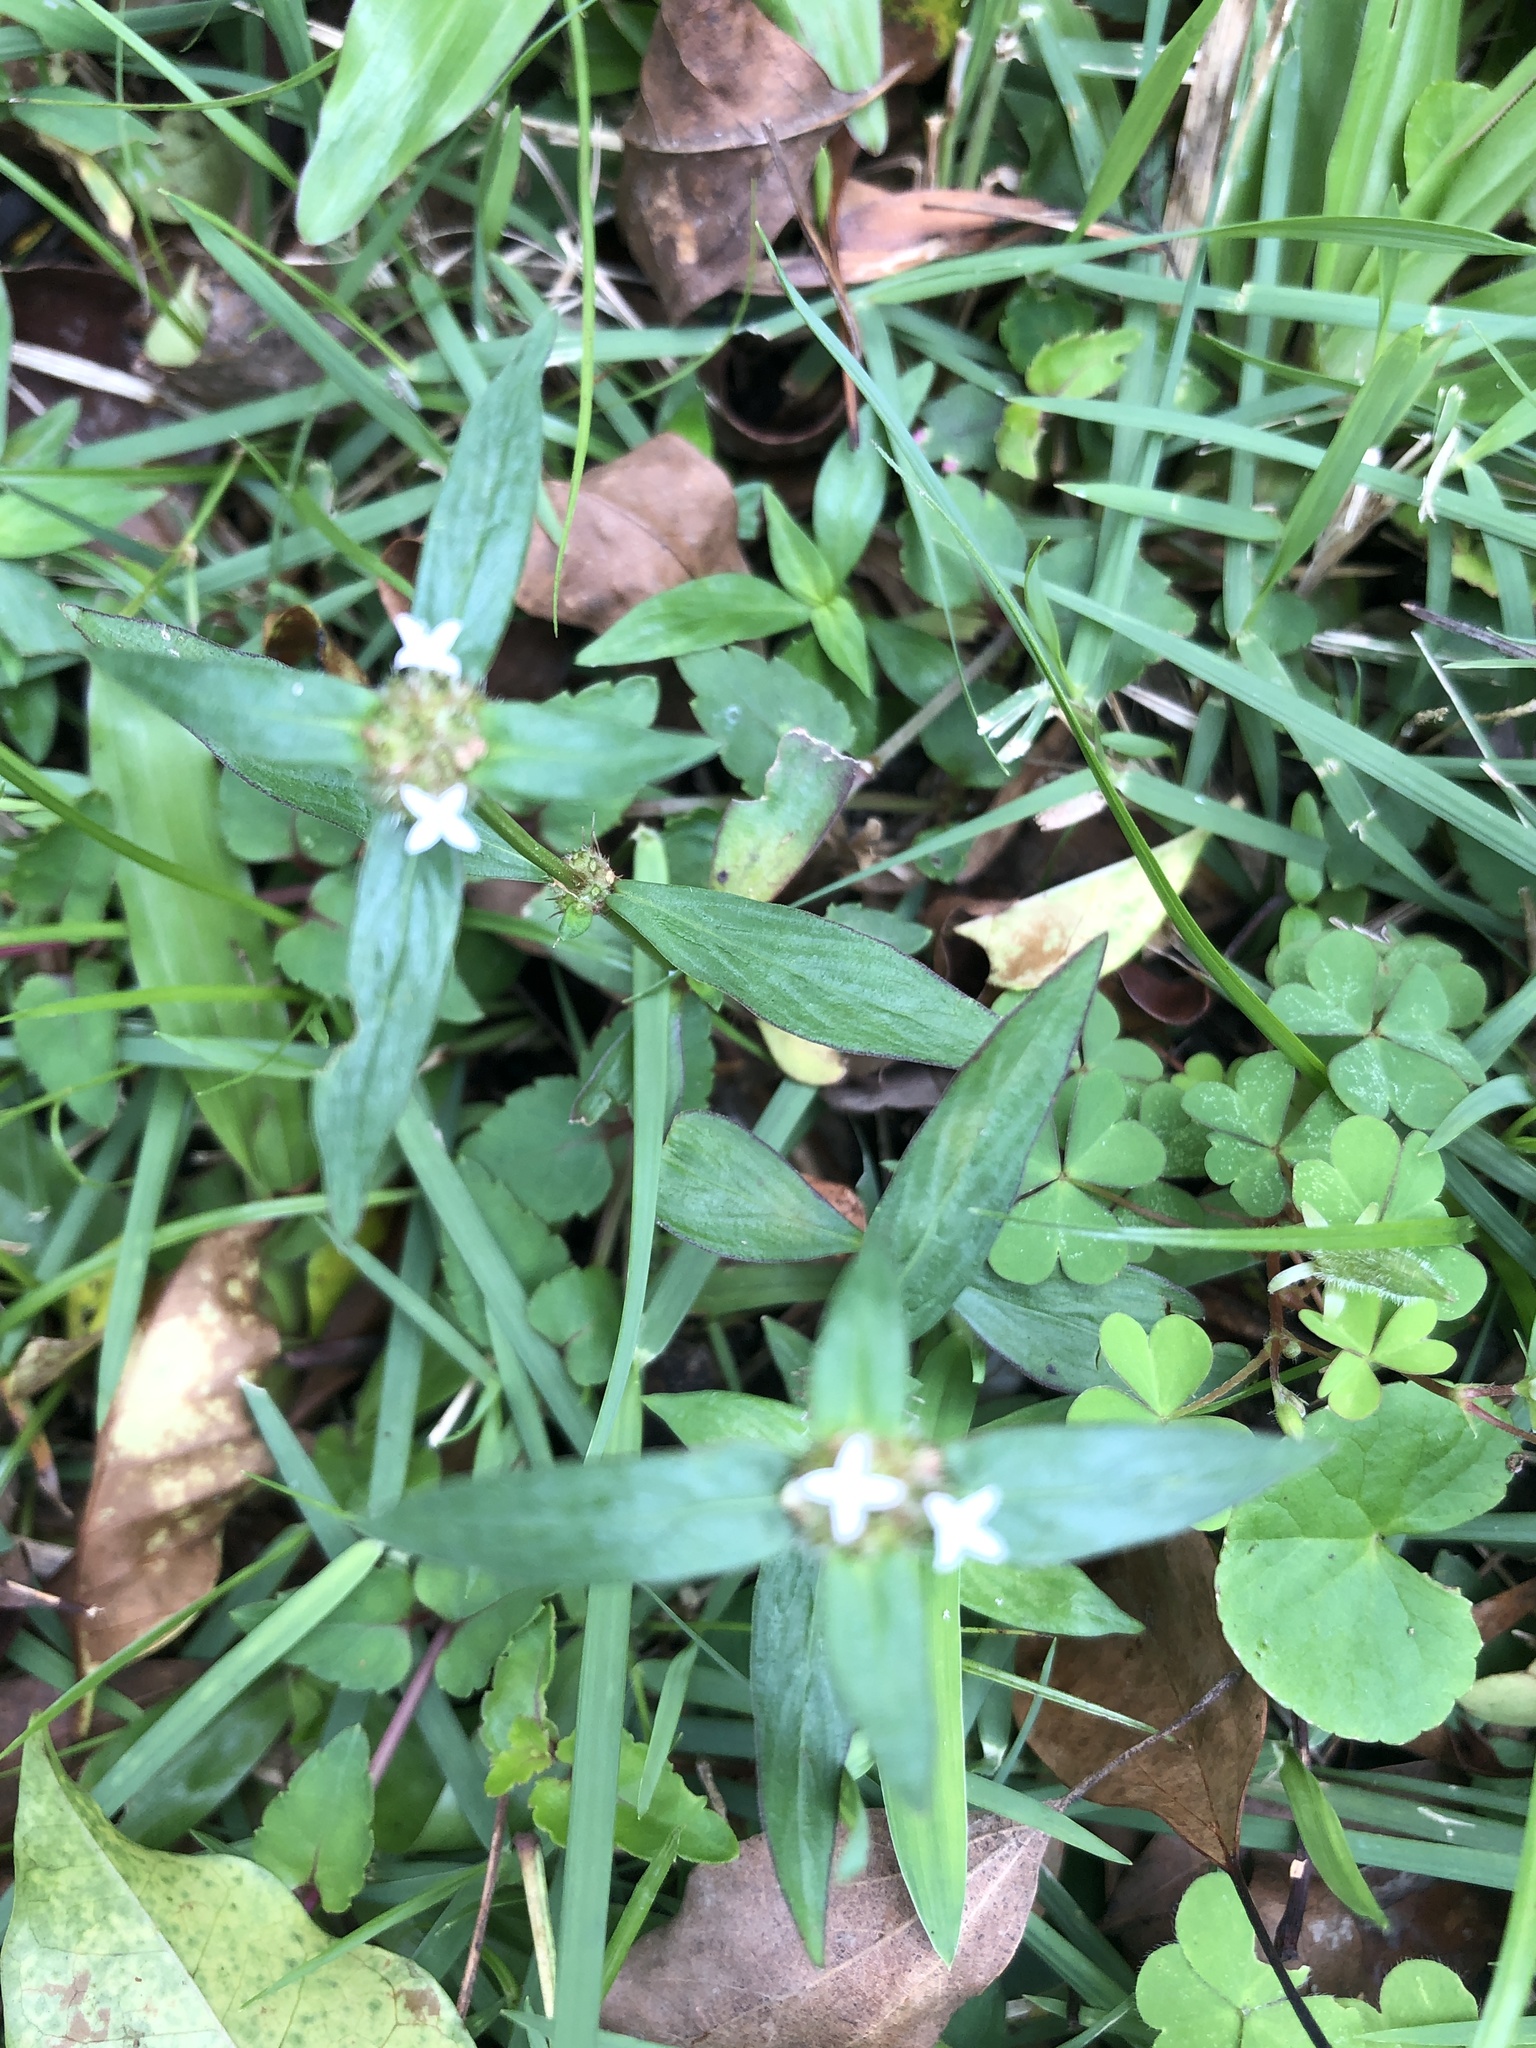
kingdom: Plantae
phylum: Tracheophyta
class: Magnoliopsida
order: Gentianales
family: Rubiaceae
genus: Spermacoce
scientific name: Spermacoce remota
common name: Woodland false buttonweed
